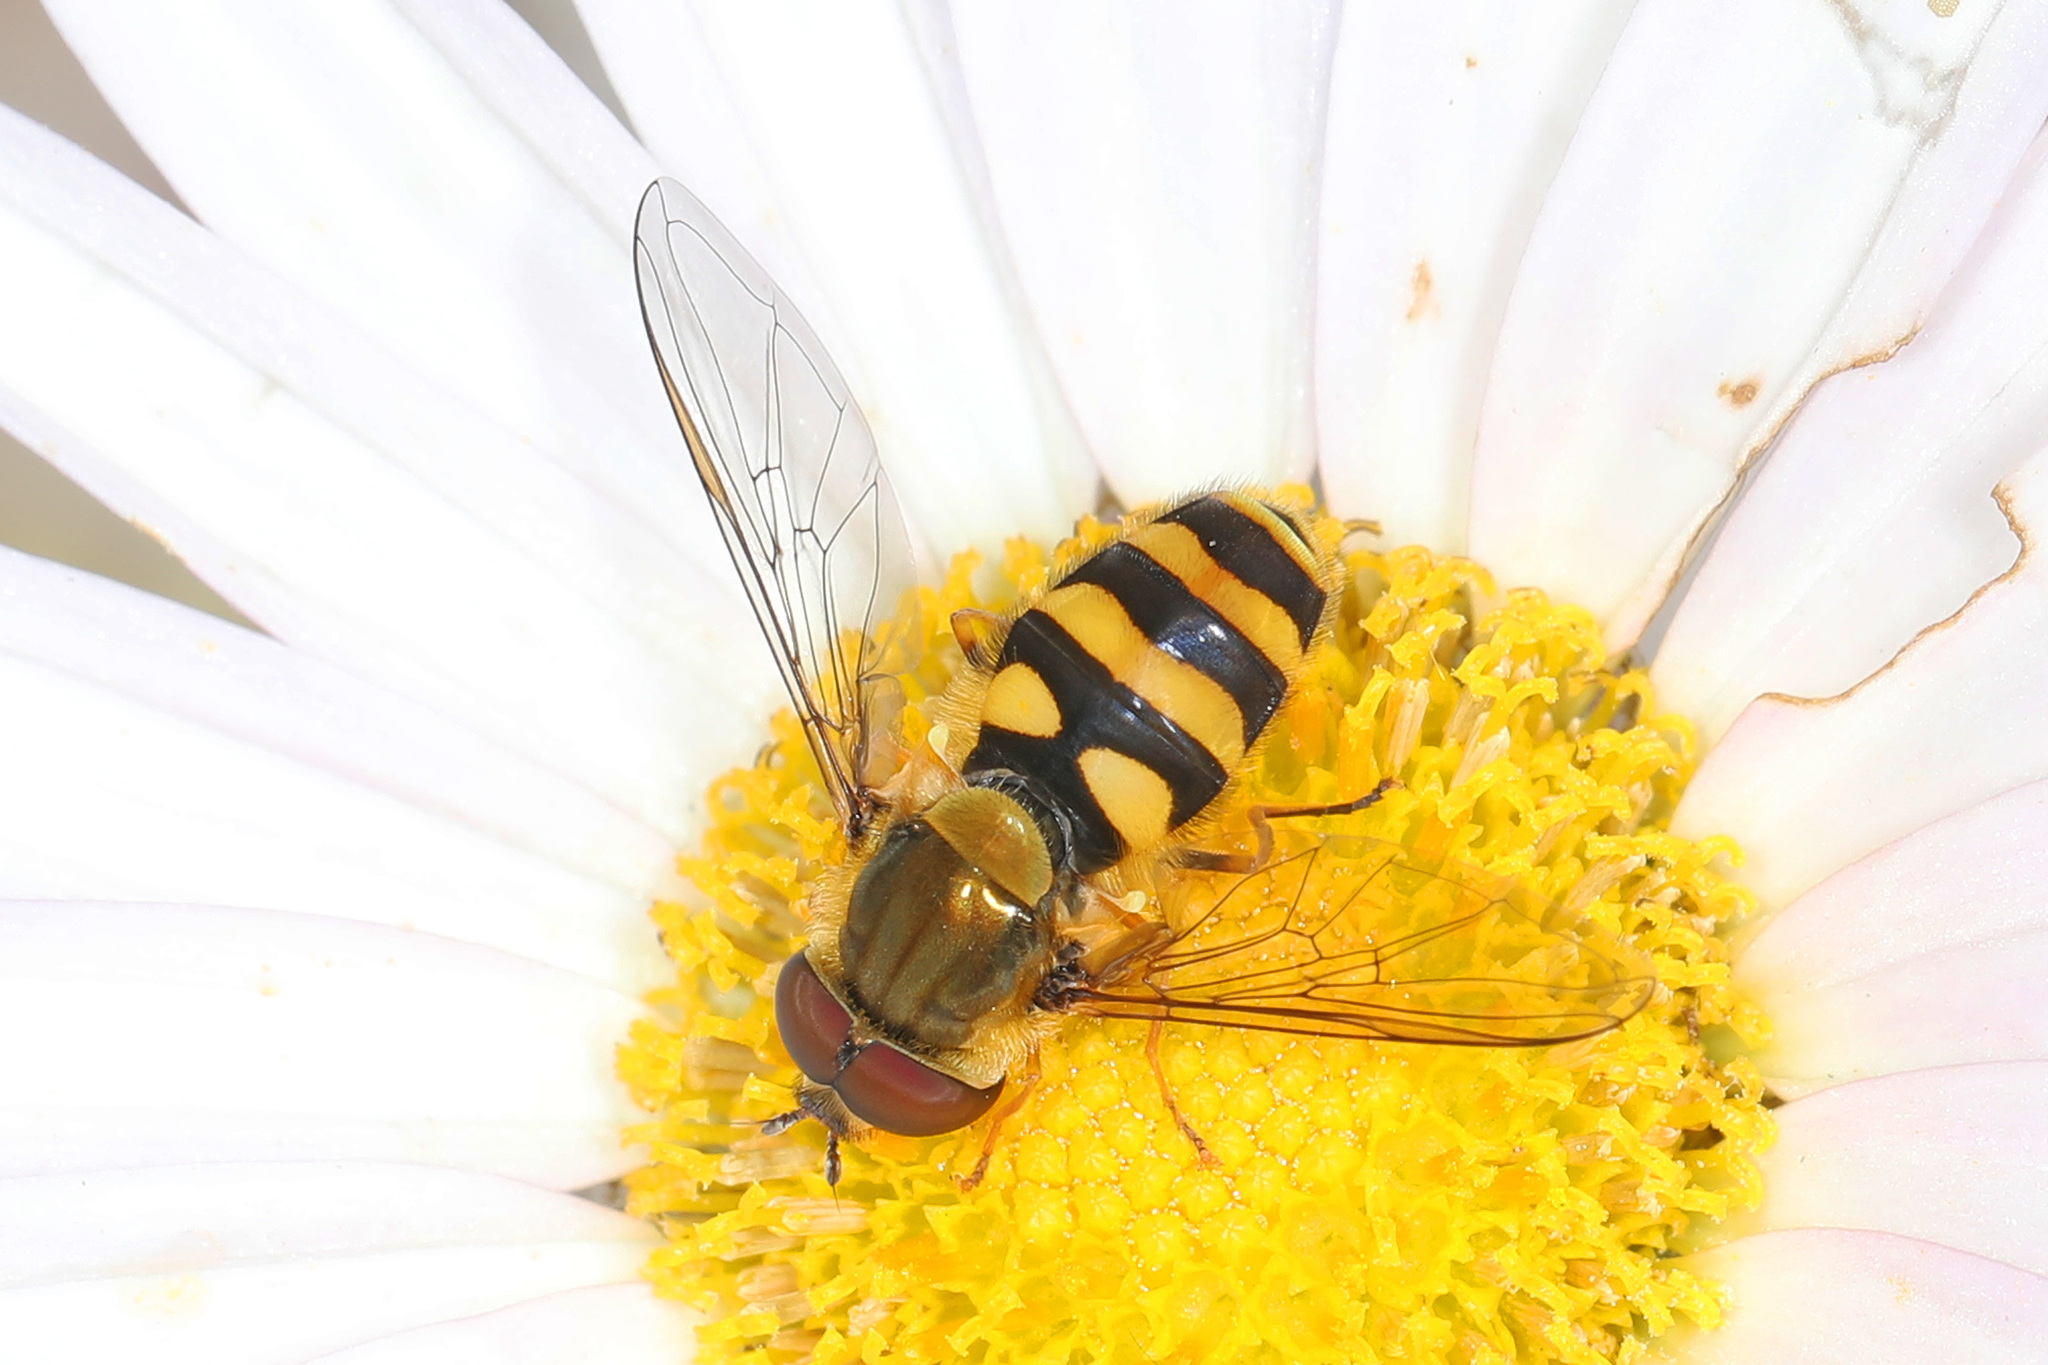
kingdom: Animalia
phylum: Arthropoda
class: Insecta
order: Diptera
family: Syrphidae
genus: Syrphus
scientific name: Syrphus
